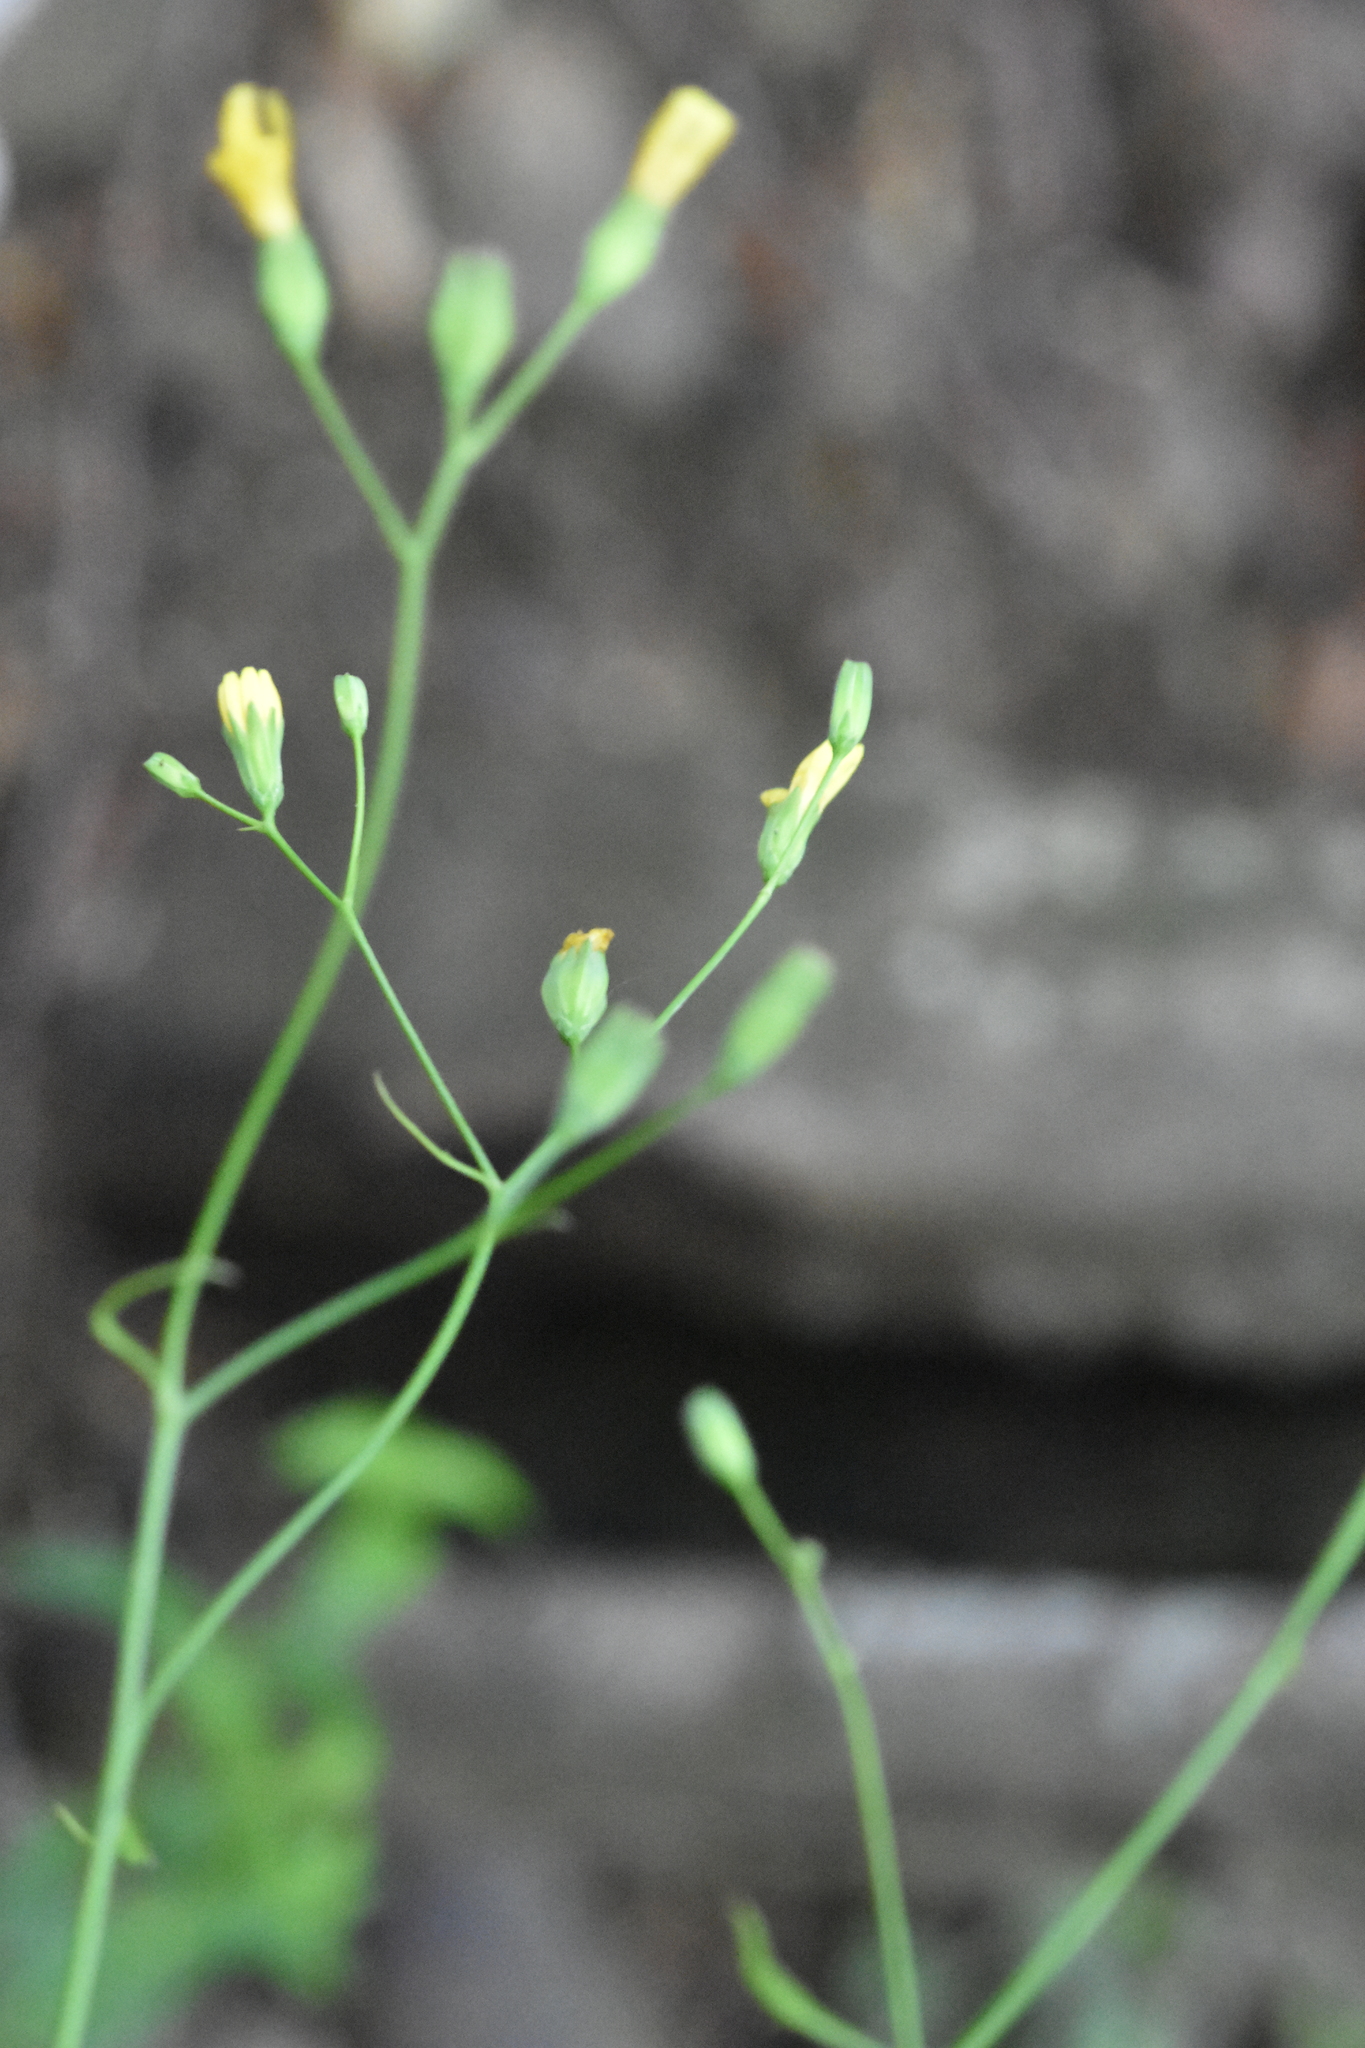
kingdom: Plantae
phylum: Tracheophyta
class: Magnoliopsida
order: Asterales
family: Asteraceae
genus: Lapsana
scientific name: Lapsana communis
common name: Nipplewort
